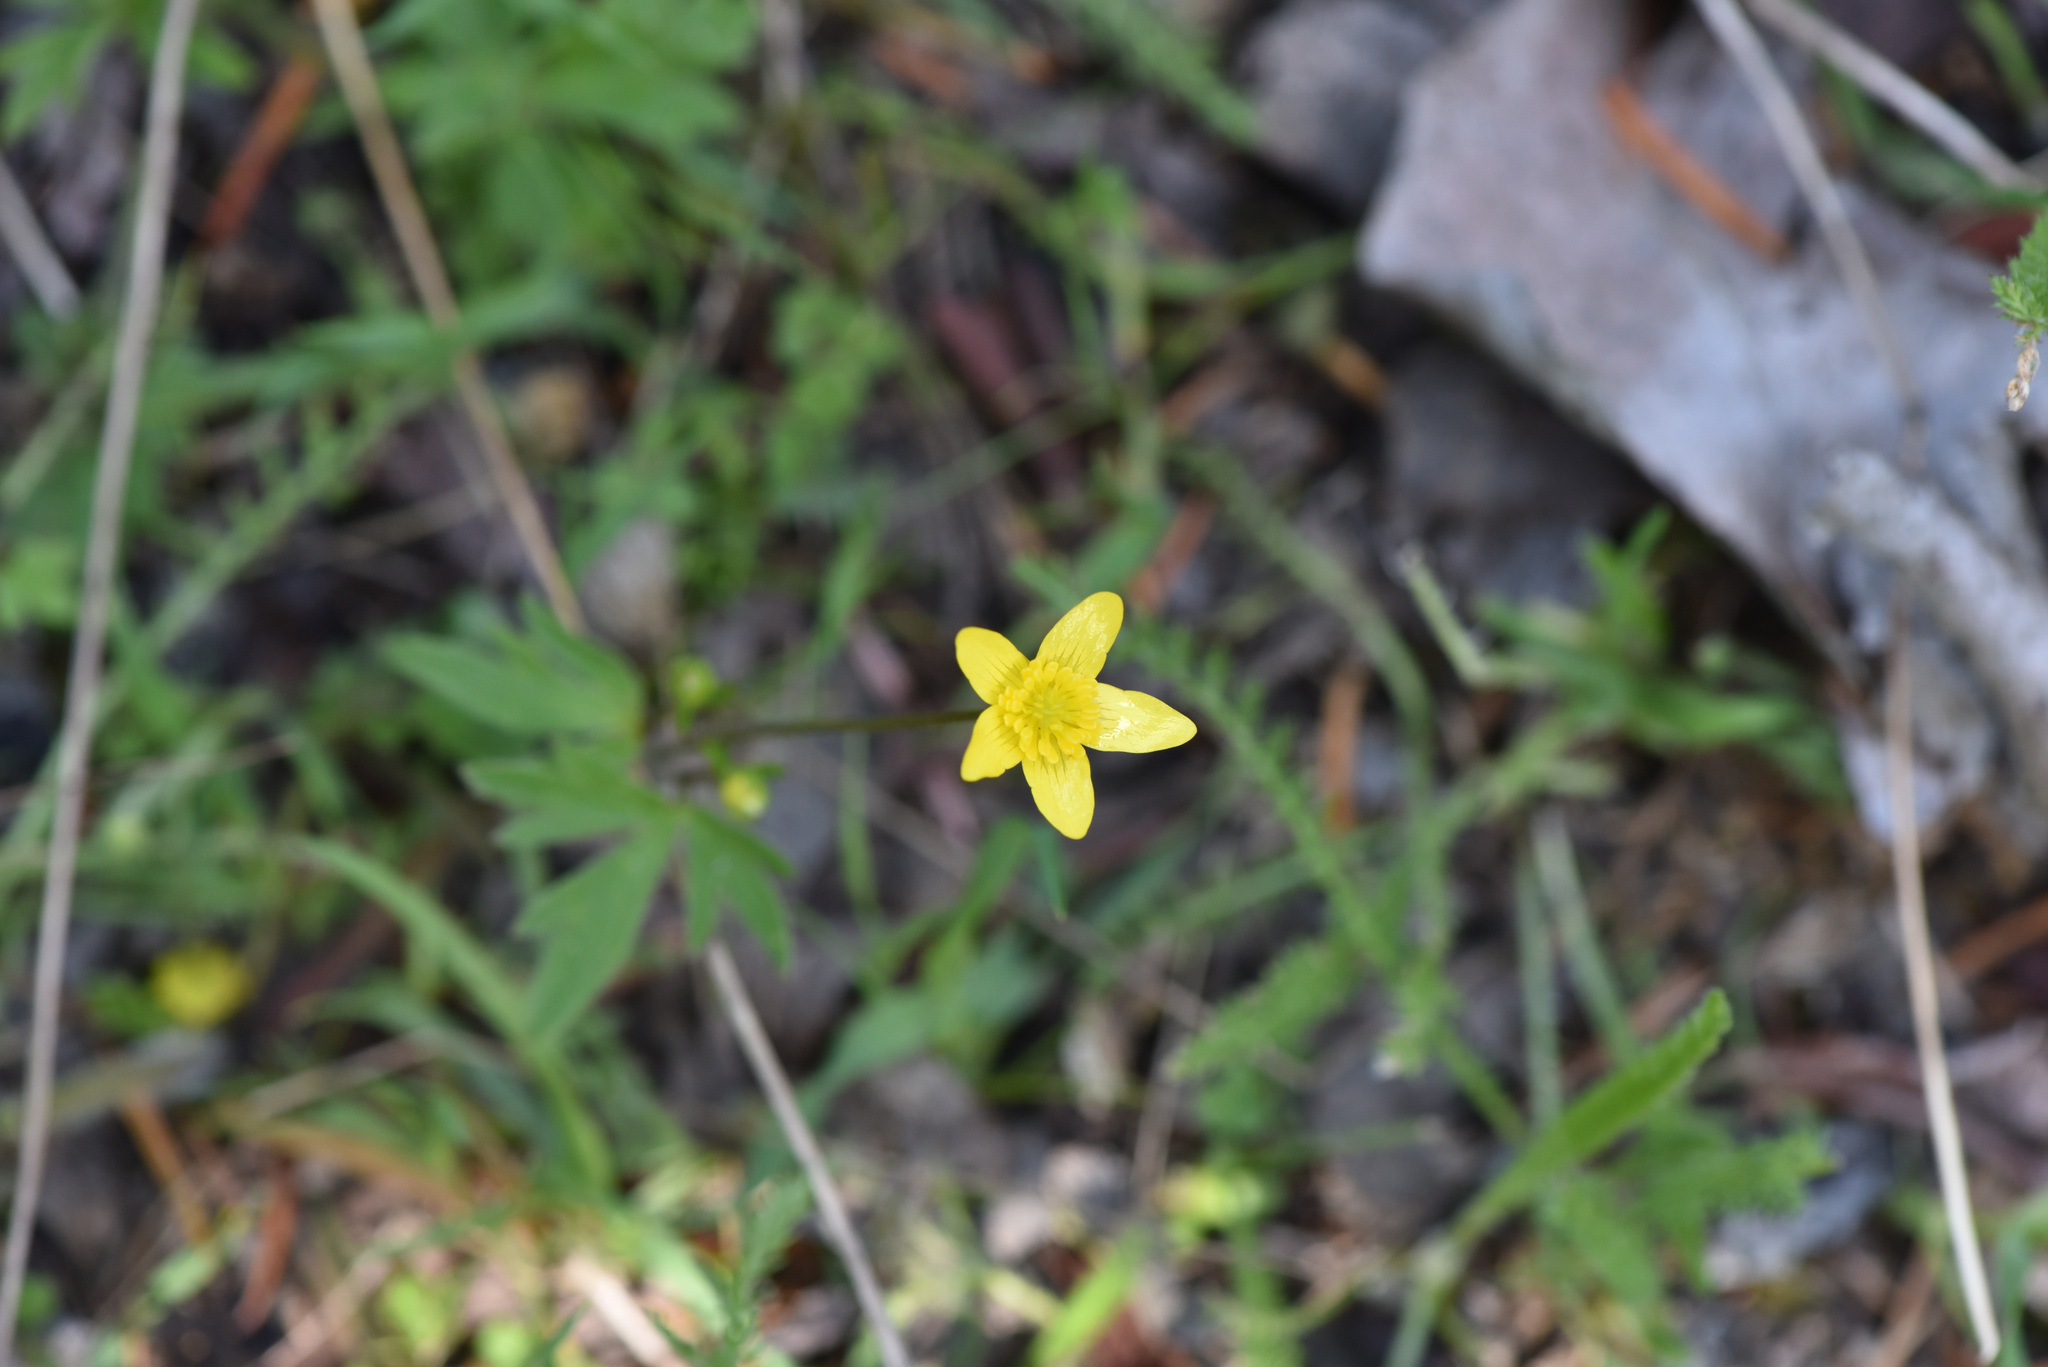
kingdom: Plantae
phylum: Tracheophyta
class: Magnoliopsida
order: Ranunculales
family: Ranunculaceae
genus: Ranunculus
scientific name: Ranunculus occidentalis
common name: Western buttercup
